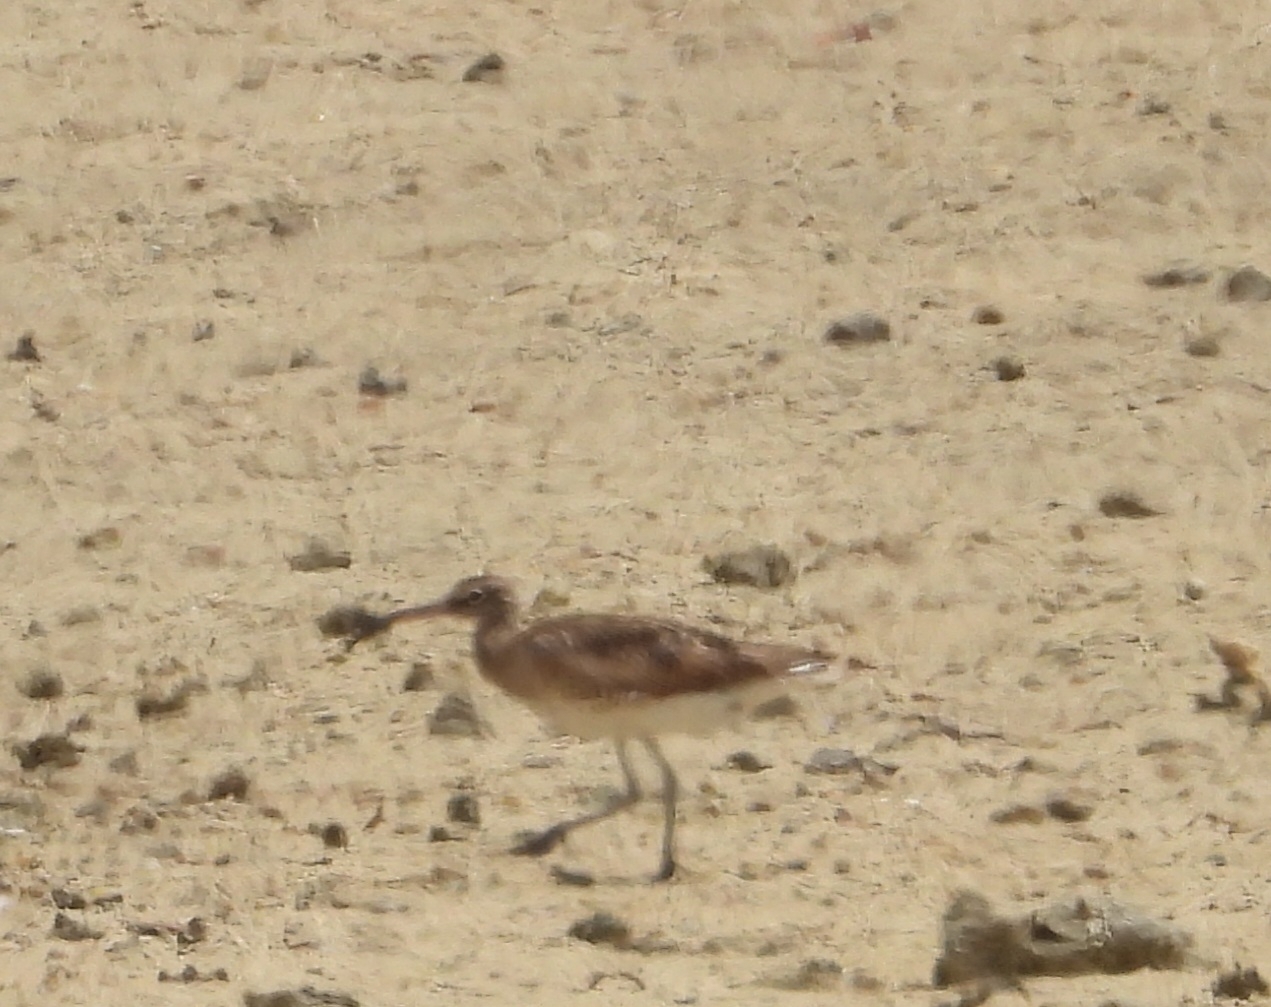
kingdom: Animalia
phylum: Chordata
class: Aves
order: Charadriiformes
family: Scolopacidae
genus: Numenius
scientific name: Numenius phaeopus
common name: Whimbrel
